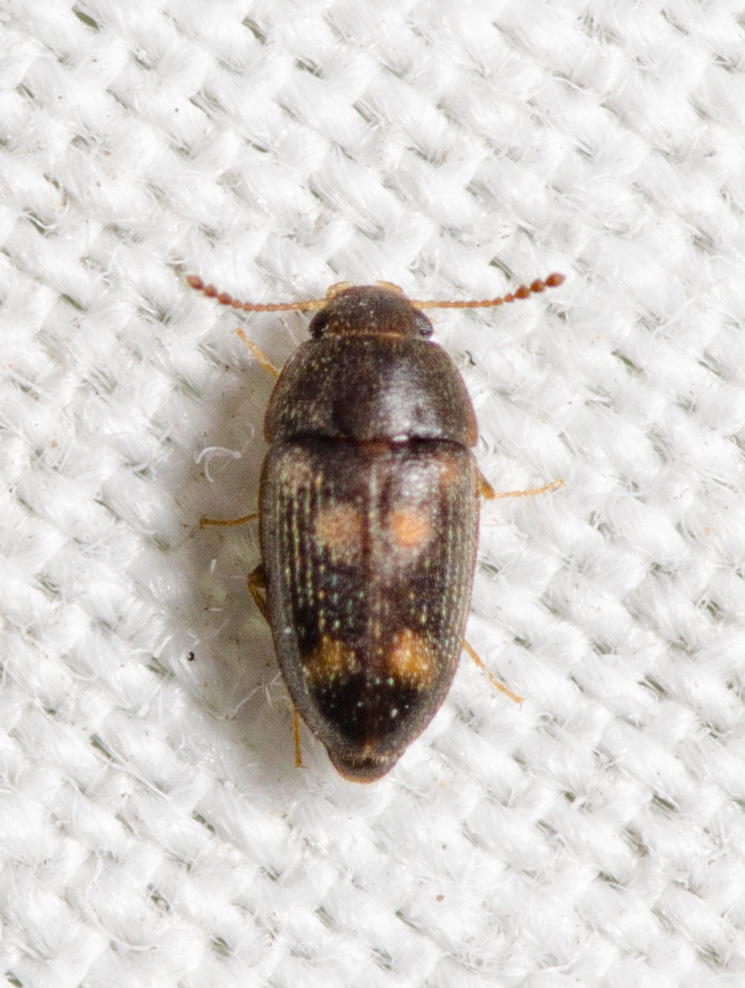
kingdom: Animalia
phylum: Arthropoda
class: Insecta
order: Coleoptera
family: Mycetophagidae
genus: Litargus
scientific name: Litargus sexpunctatus
